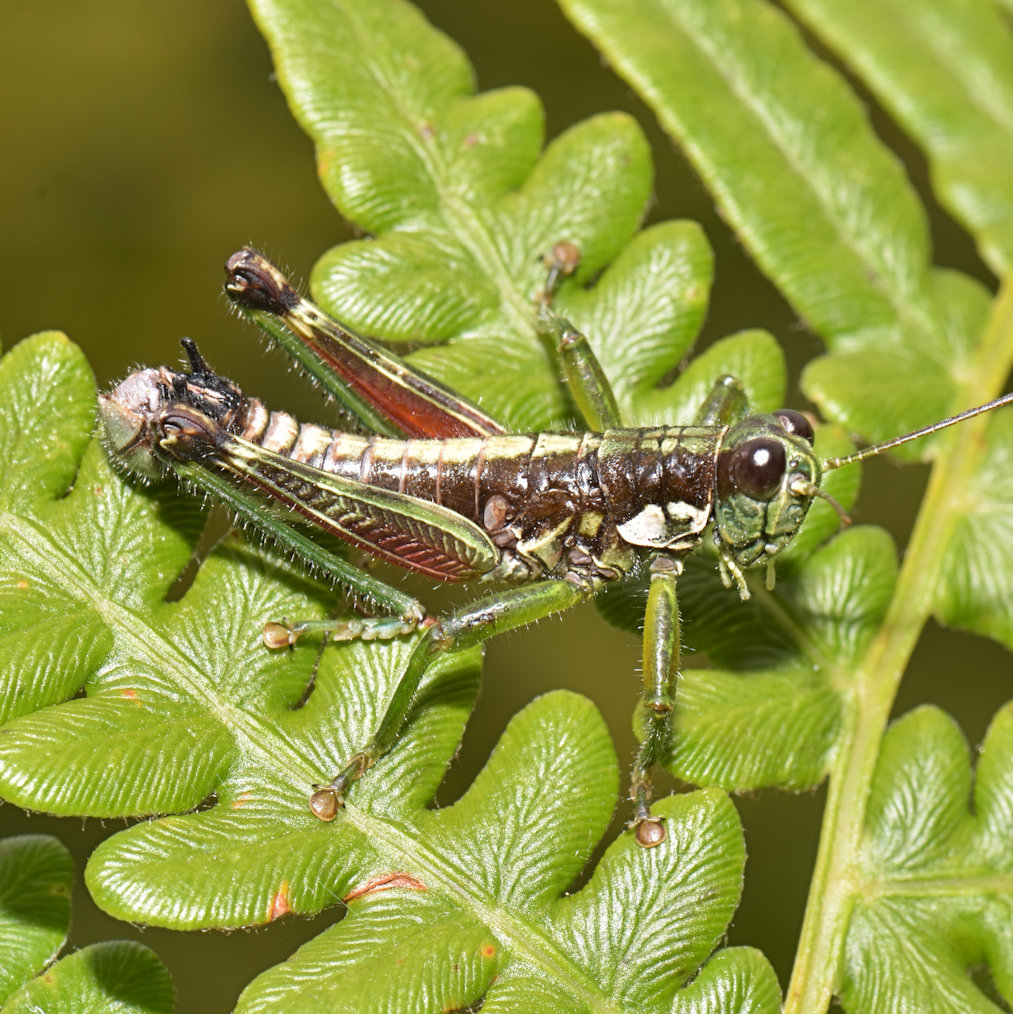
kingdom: Animalia
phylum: Arthropoda
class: Insecta
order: Orthoptera
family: Acrididae
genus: Booneacris
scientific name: Booneacris glacialis
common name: Wingless mountain grasshopper
